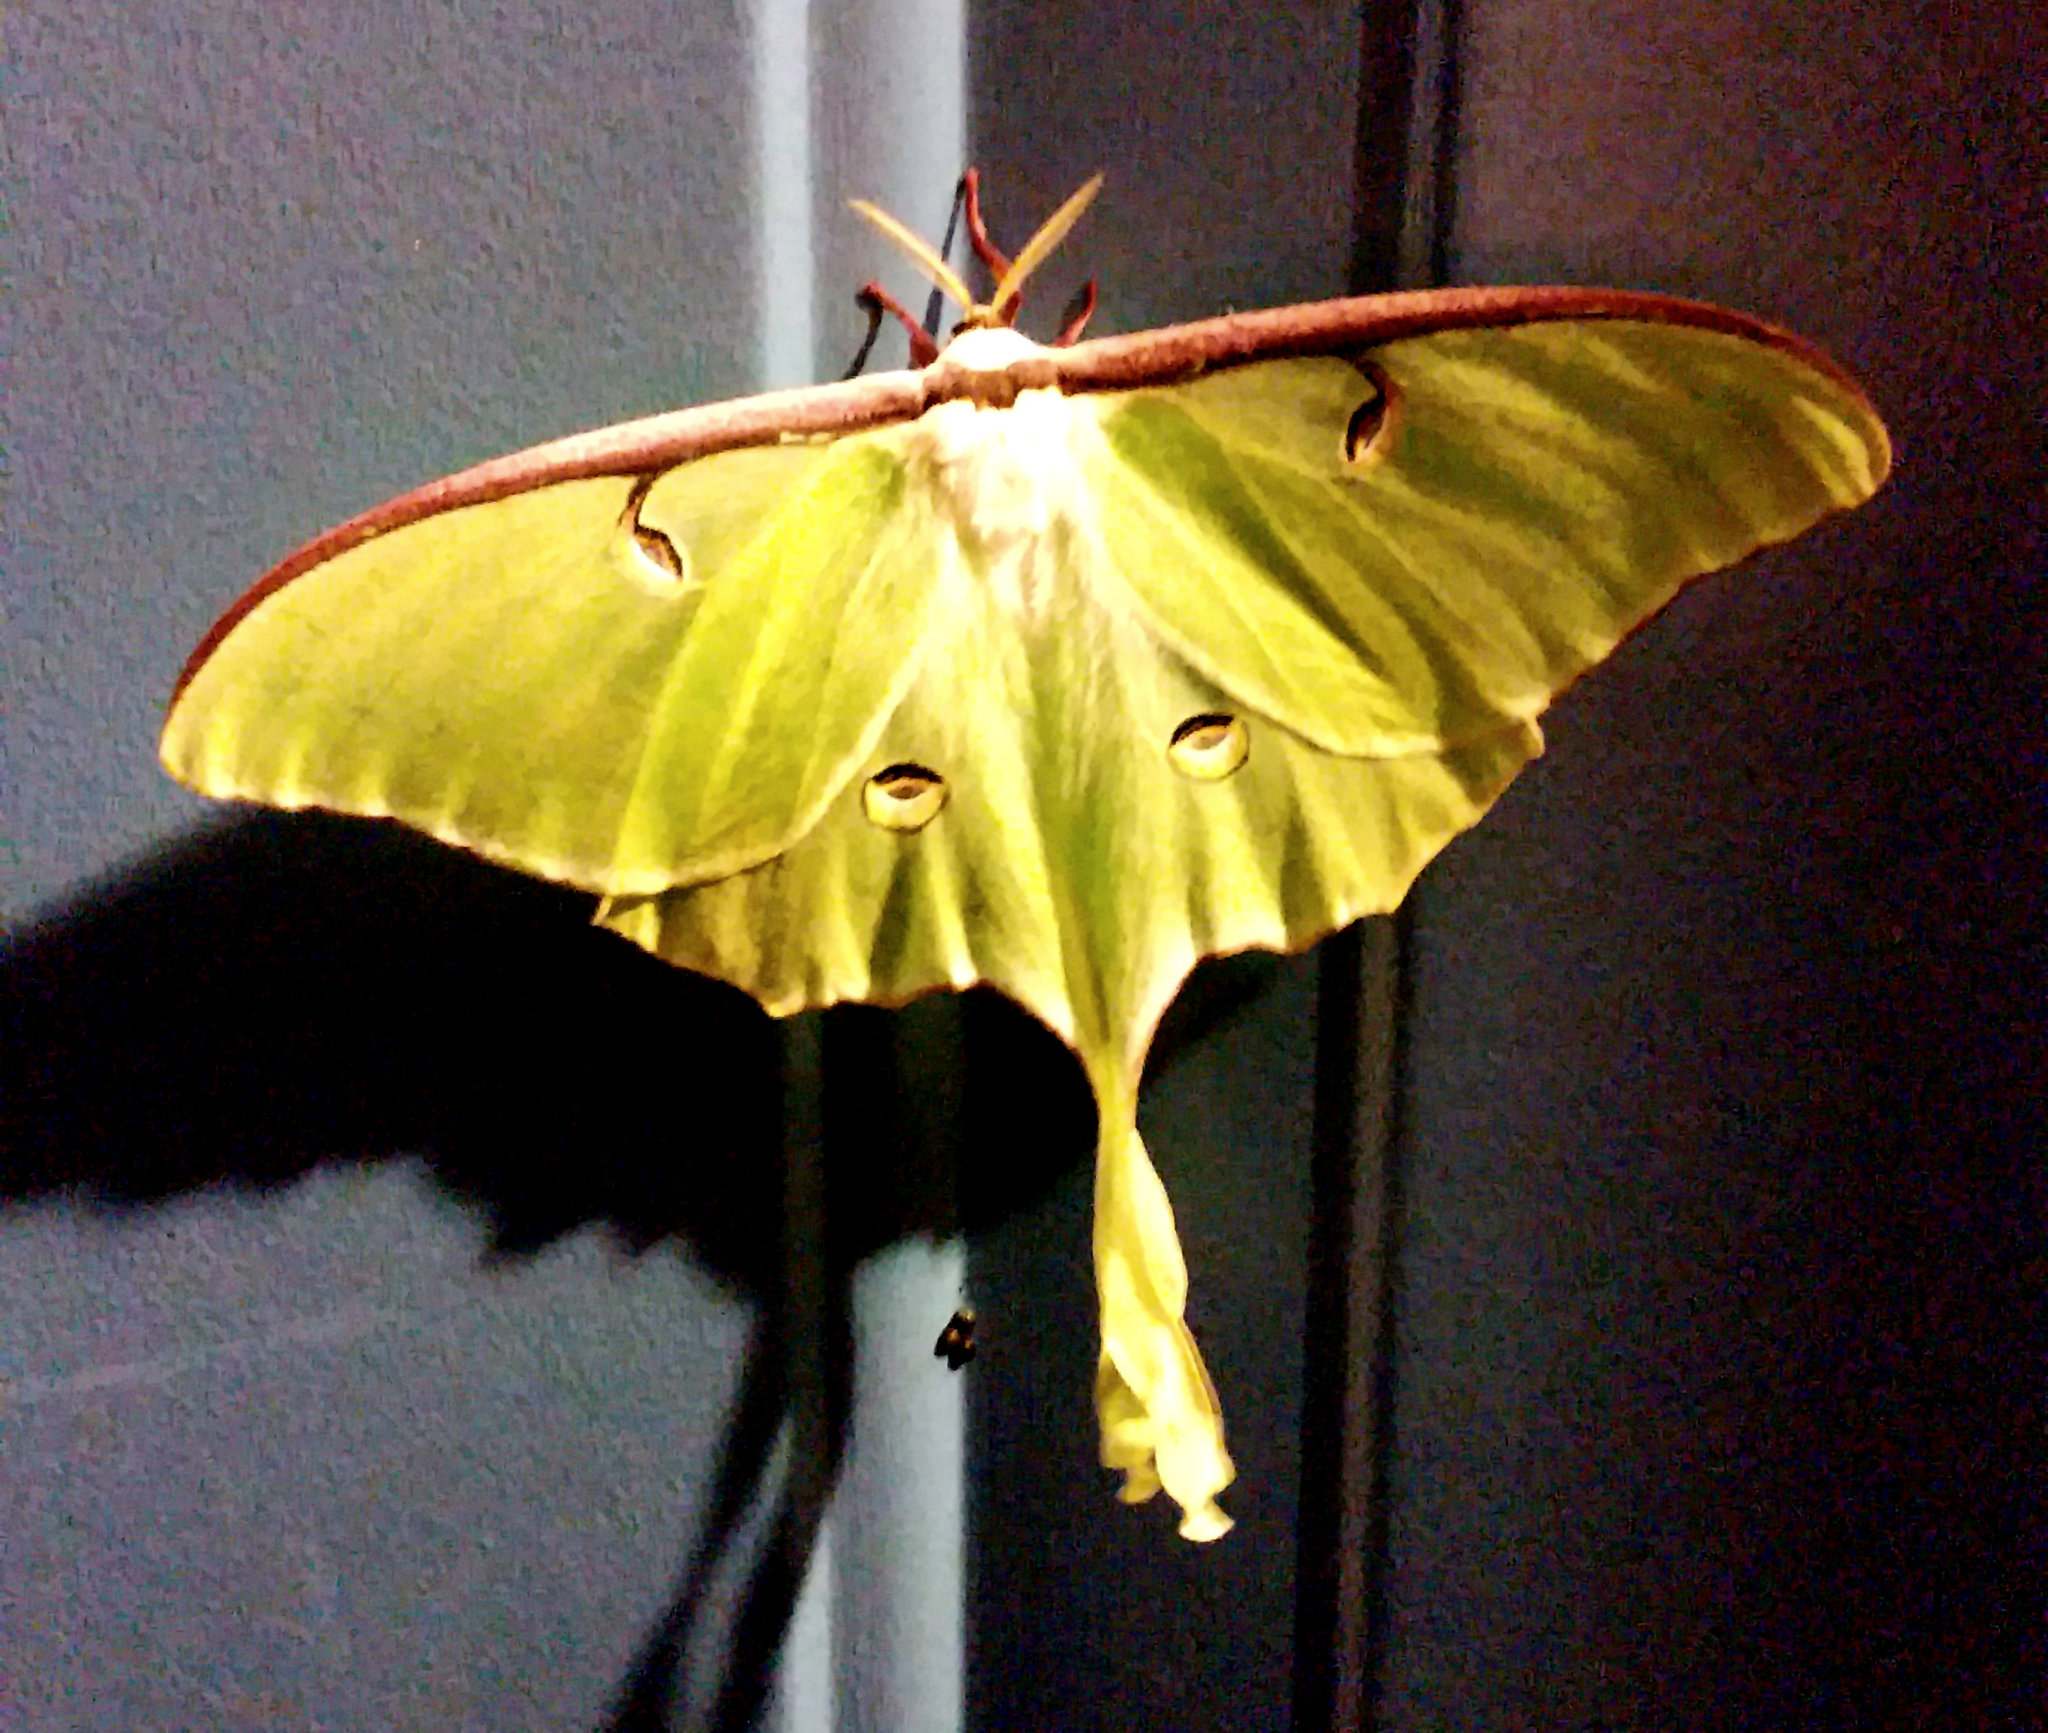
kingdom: Animalia
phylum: Arthropoda
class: Insecta
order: Lepidoptera
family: Saturniidae
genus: Actias
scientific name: Actias luna
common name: Luna moth
